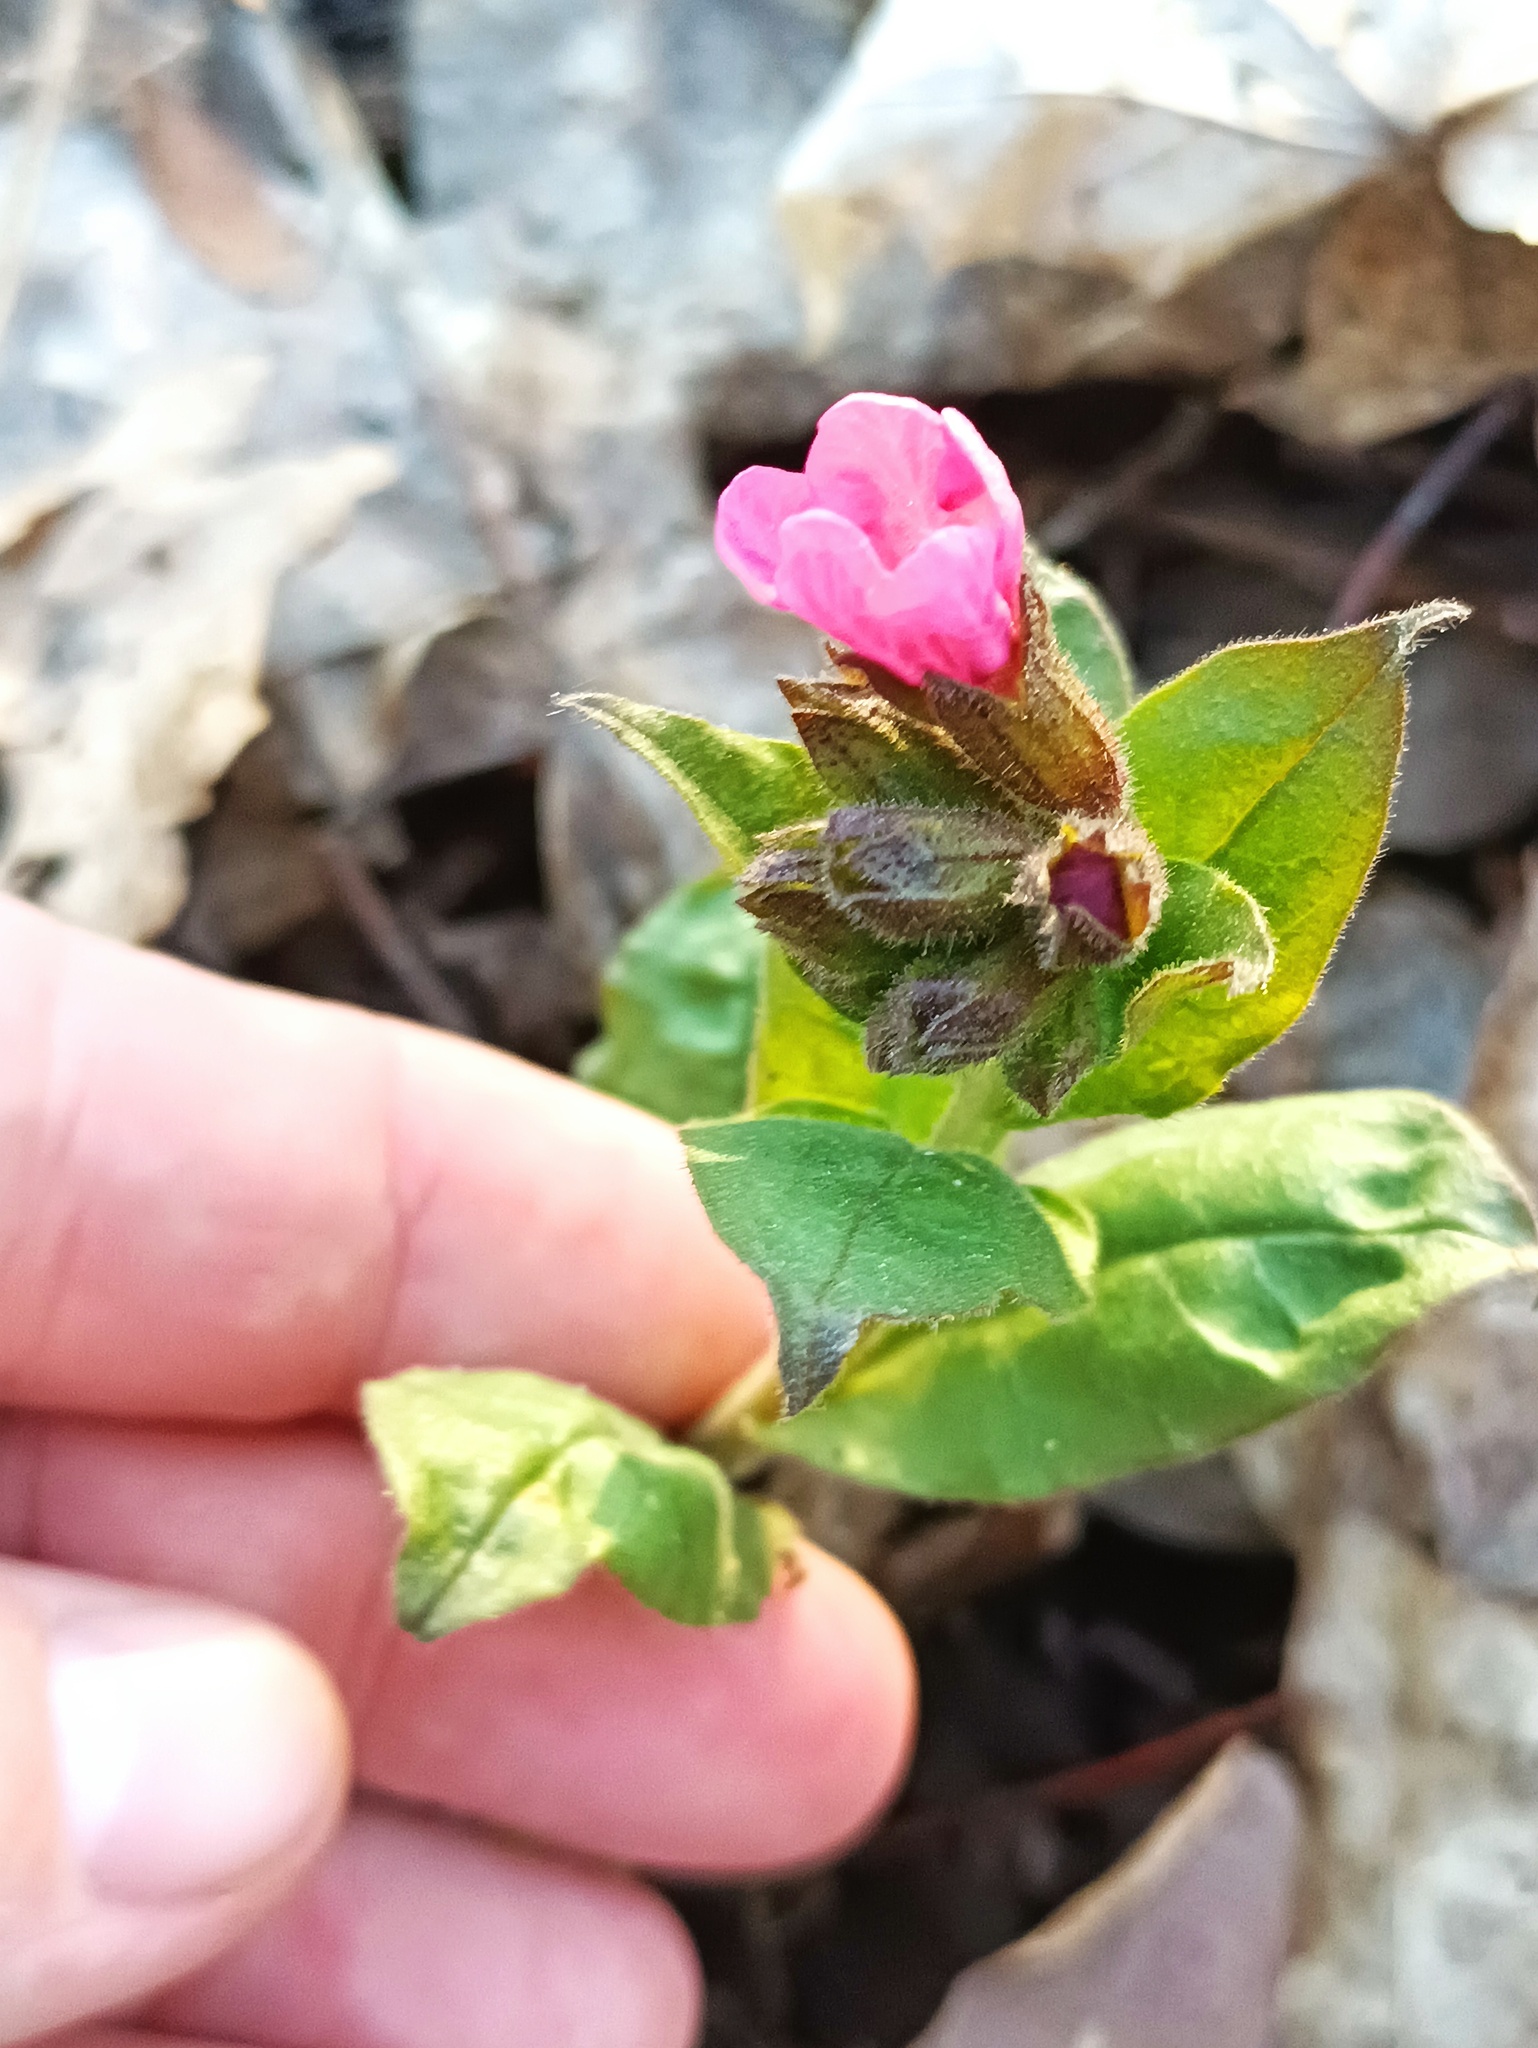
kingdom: Plantae
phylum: Tracheophyta
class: Magnoliopsida
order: Boraginales
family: Boraginaceae
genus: Pulmonaria
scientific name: Pulmonaria obscura
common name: Suffolk lungwort
